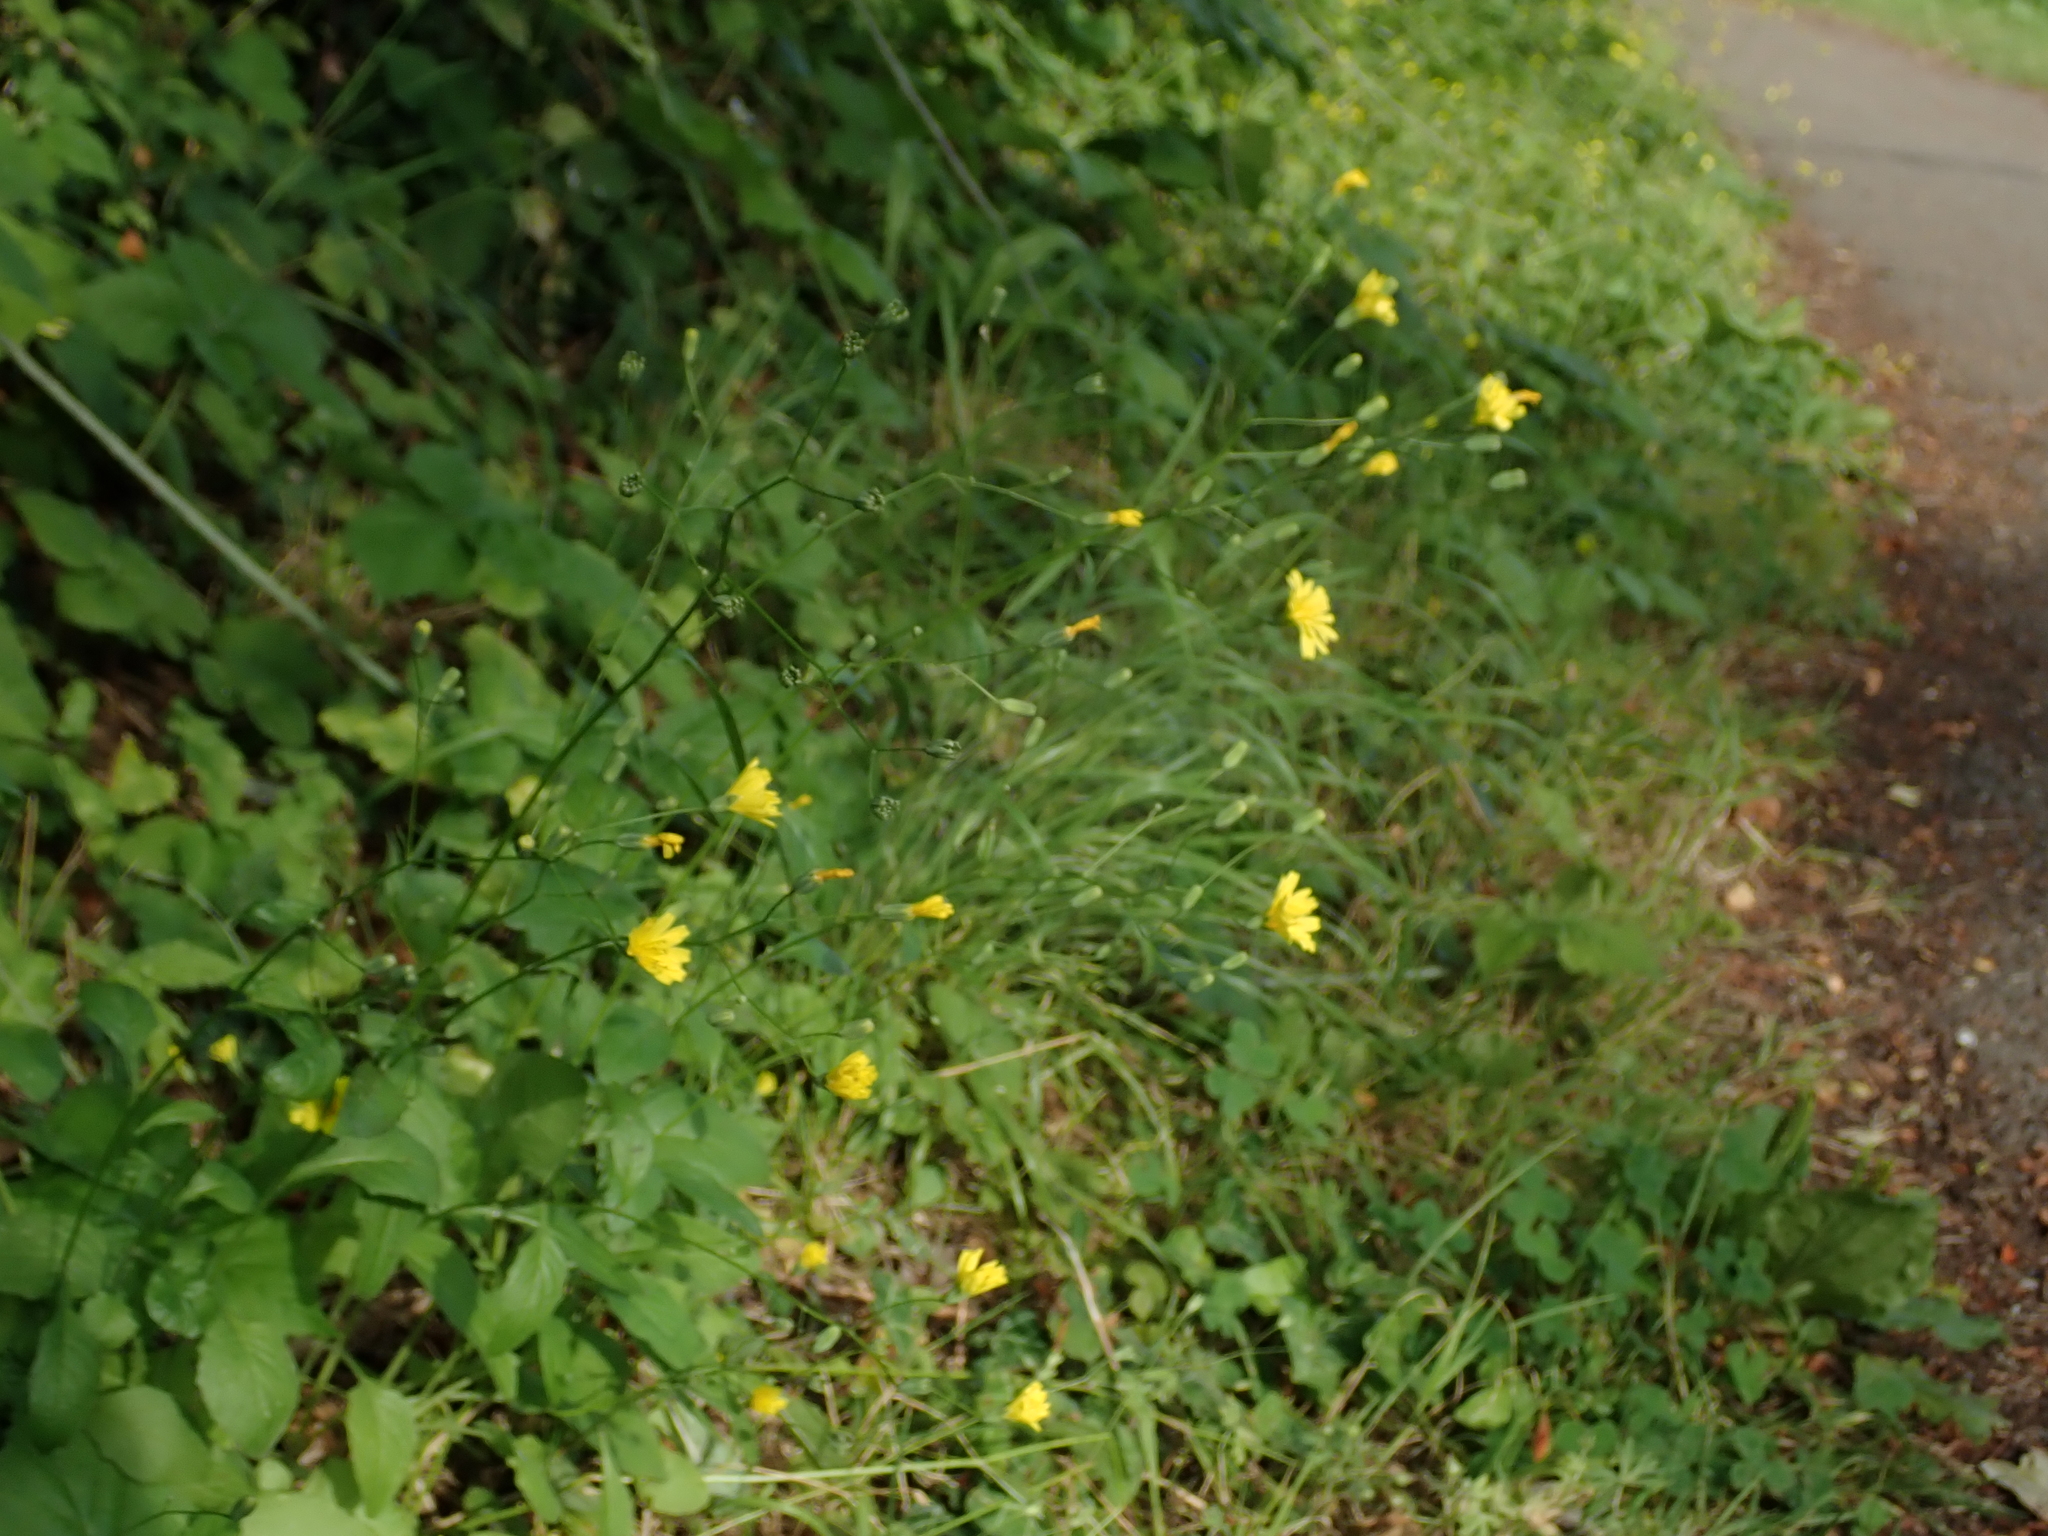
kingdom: Plantae
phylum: Tracheophyta
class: Magnoliopsida
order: Asterales
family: Asteraceae
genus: Lapsana
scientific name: Lapsana communis
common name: Nipplewort
